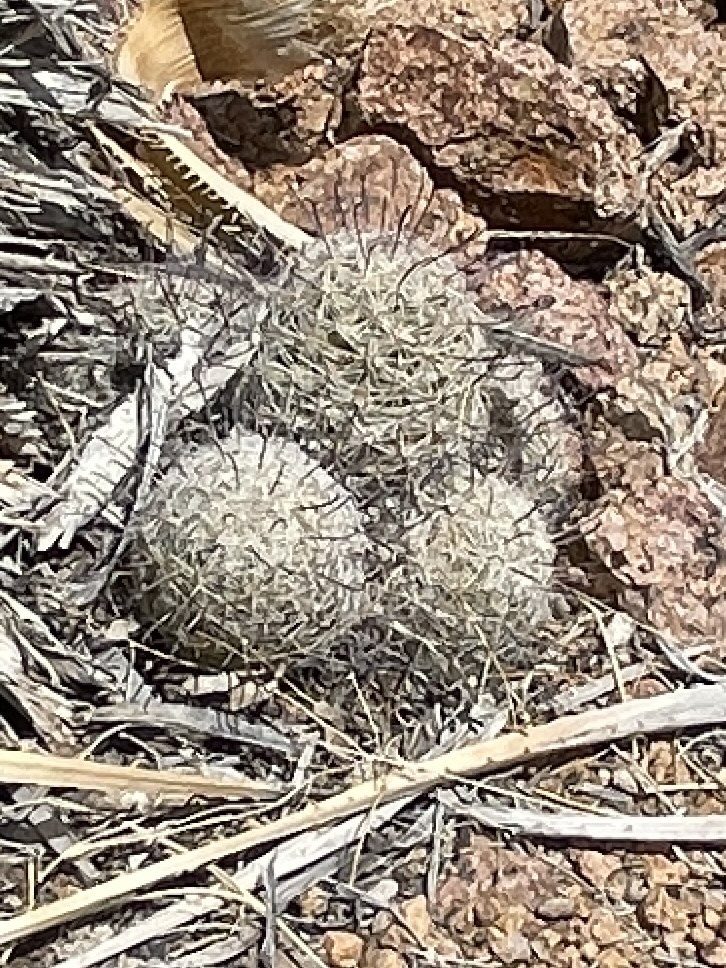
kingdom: Plantae
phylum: Tracheophyta
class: Magnoliopsida
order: Caryophyllales
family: Cactaceae
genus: Cochemiea
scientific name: Cochemiea grahamii
